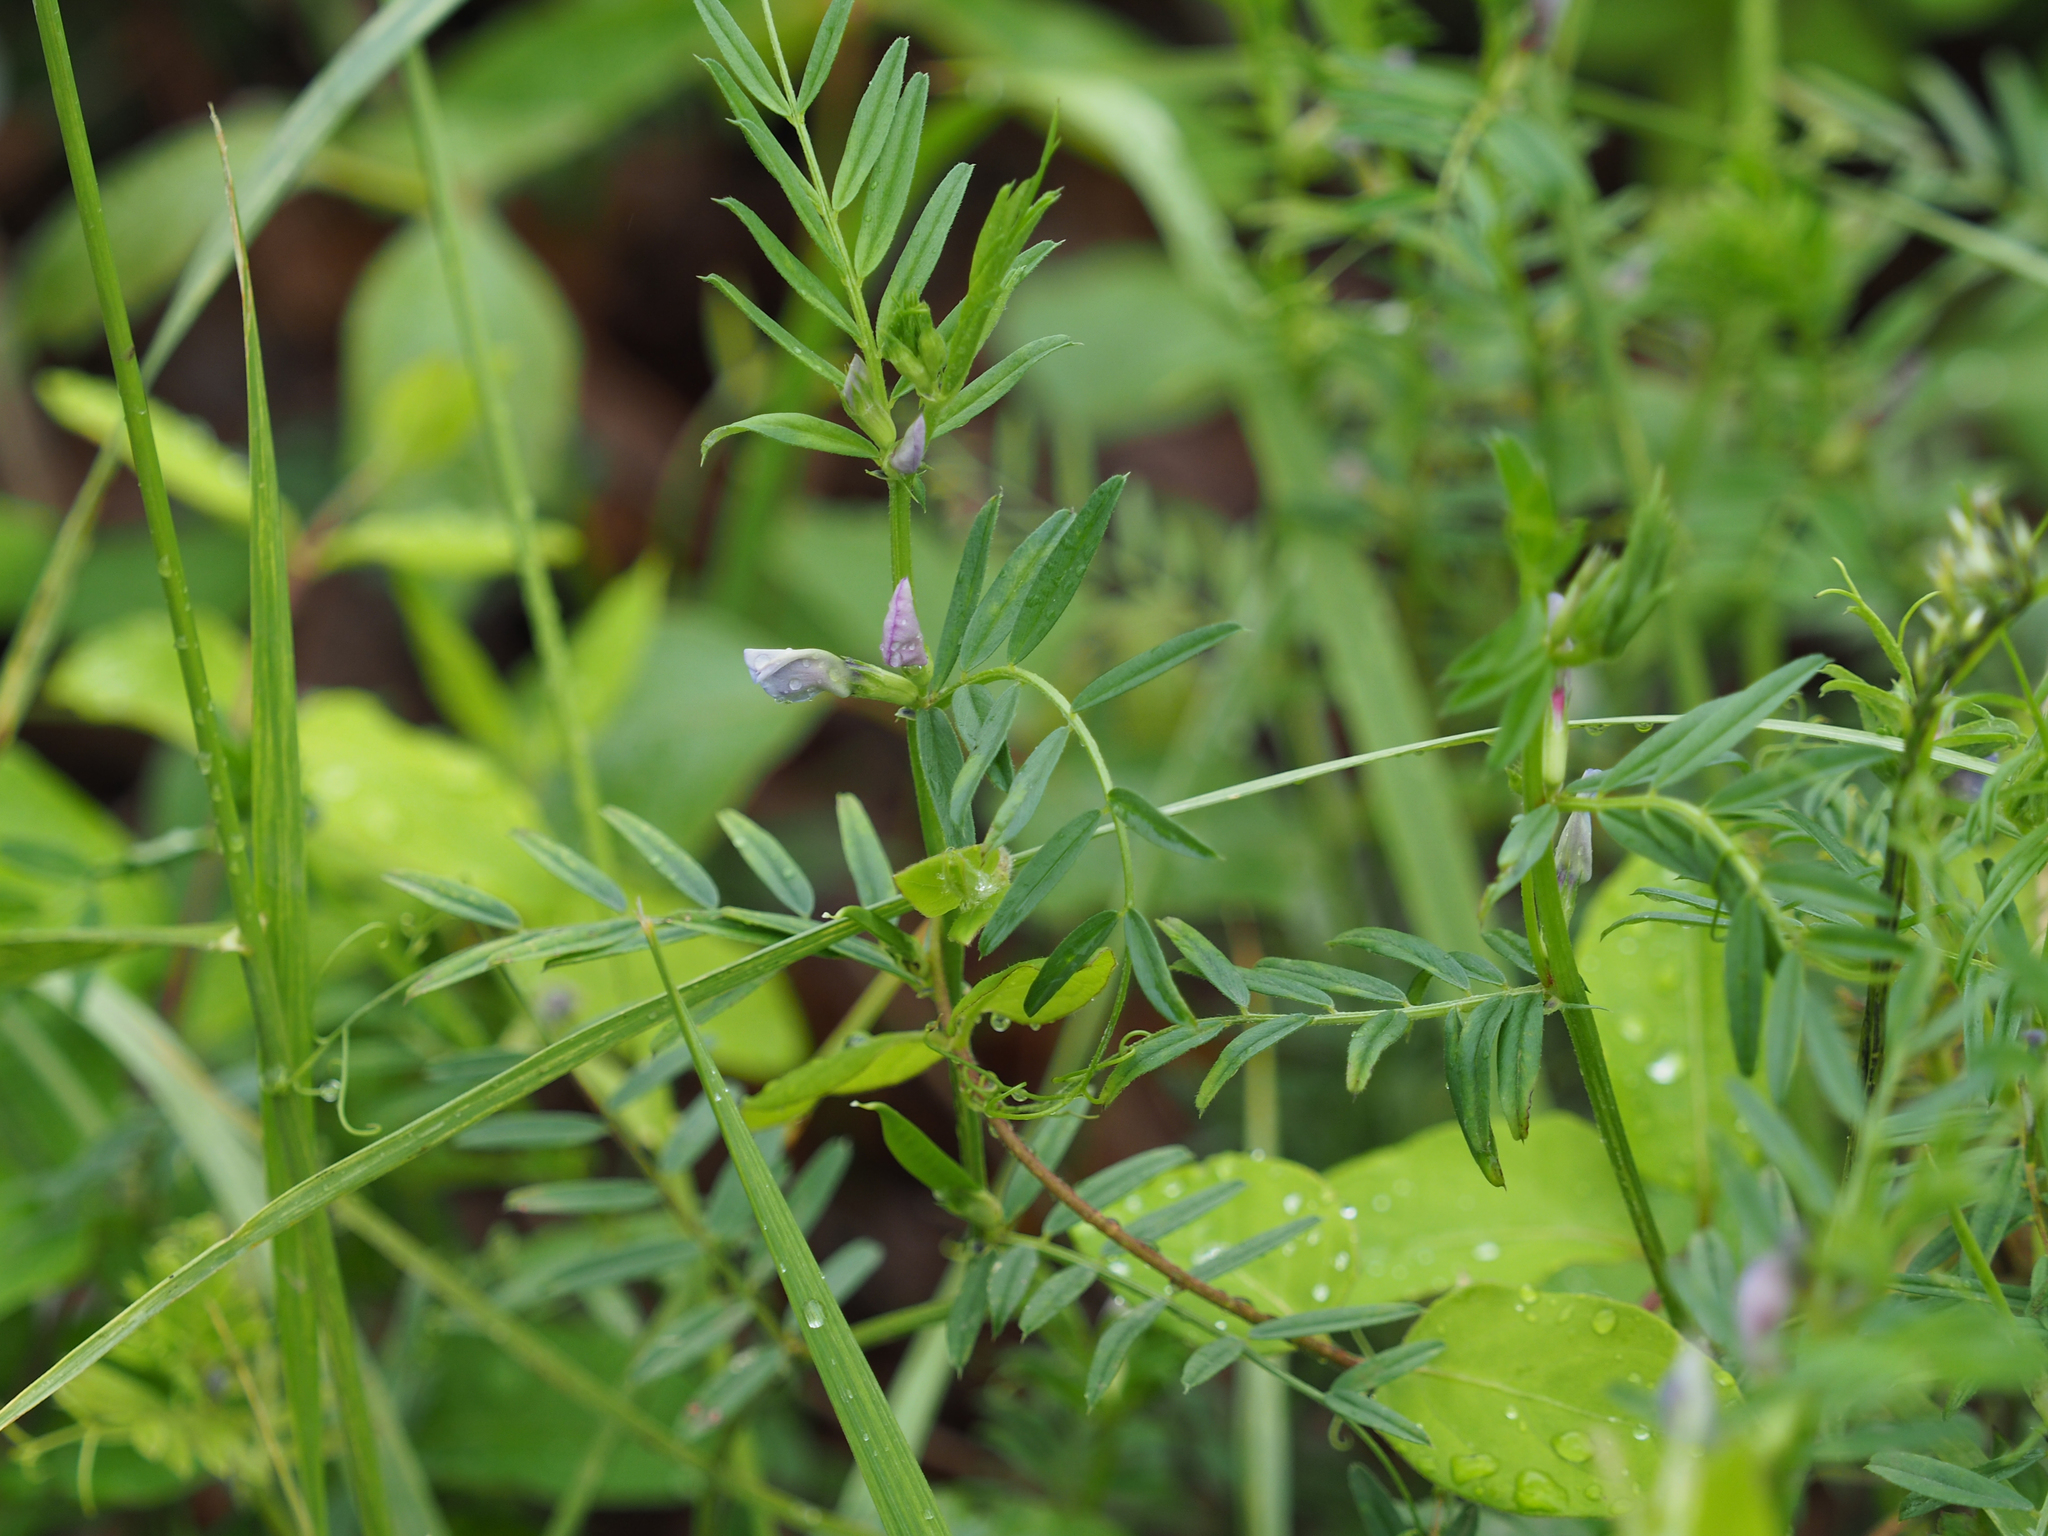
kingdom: Plantae
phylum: Tracheophyta
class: Magnoliopsida
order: Fabales
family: Fabaceae
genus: Vicia
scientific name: Vicia sativa
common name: Garden vetch
